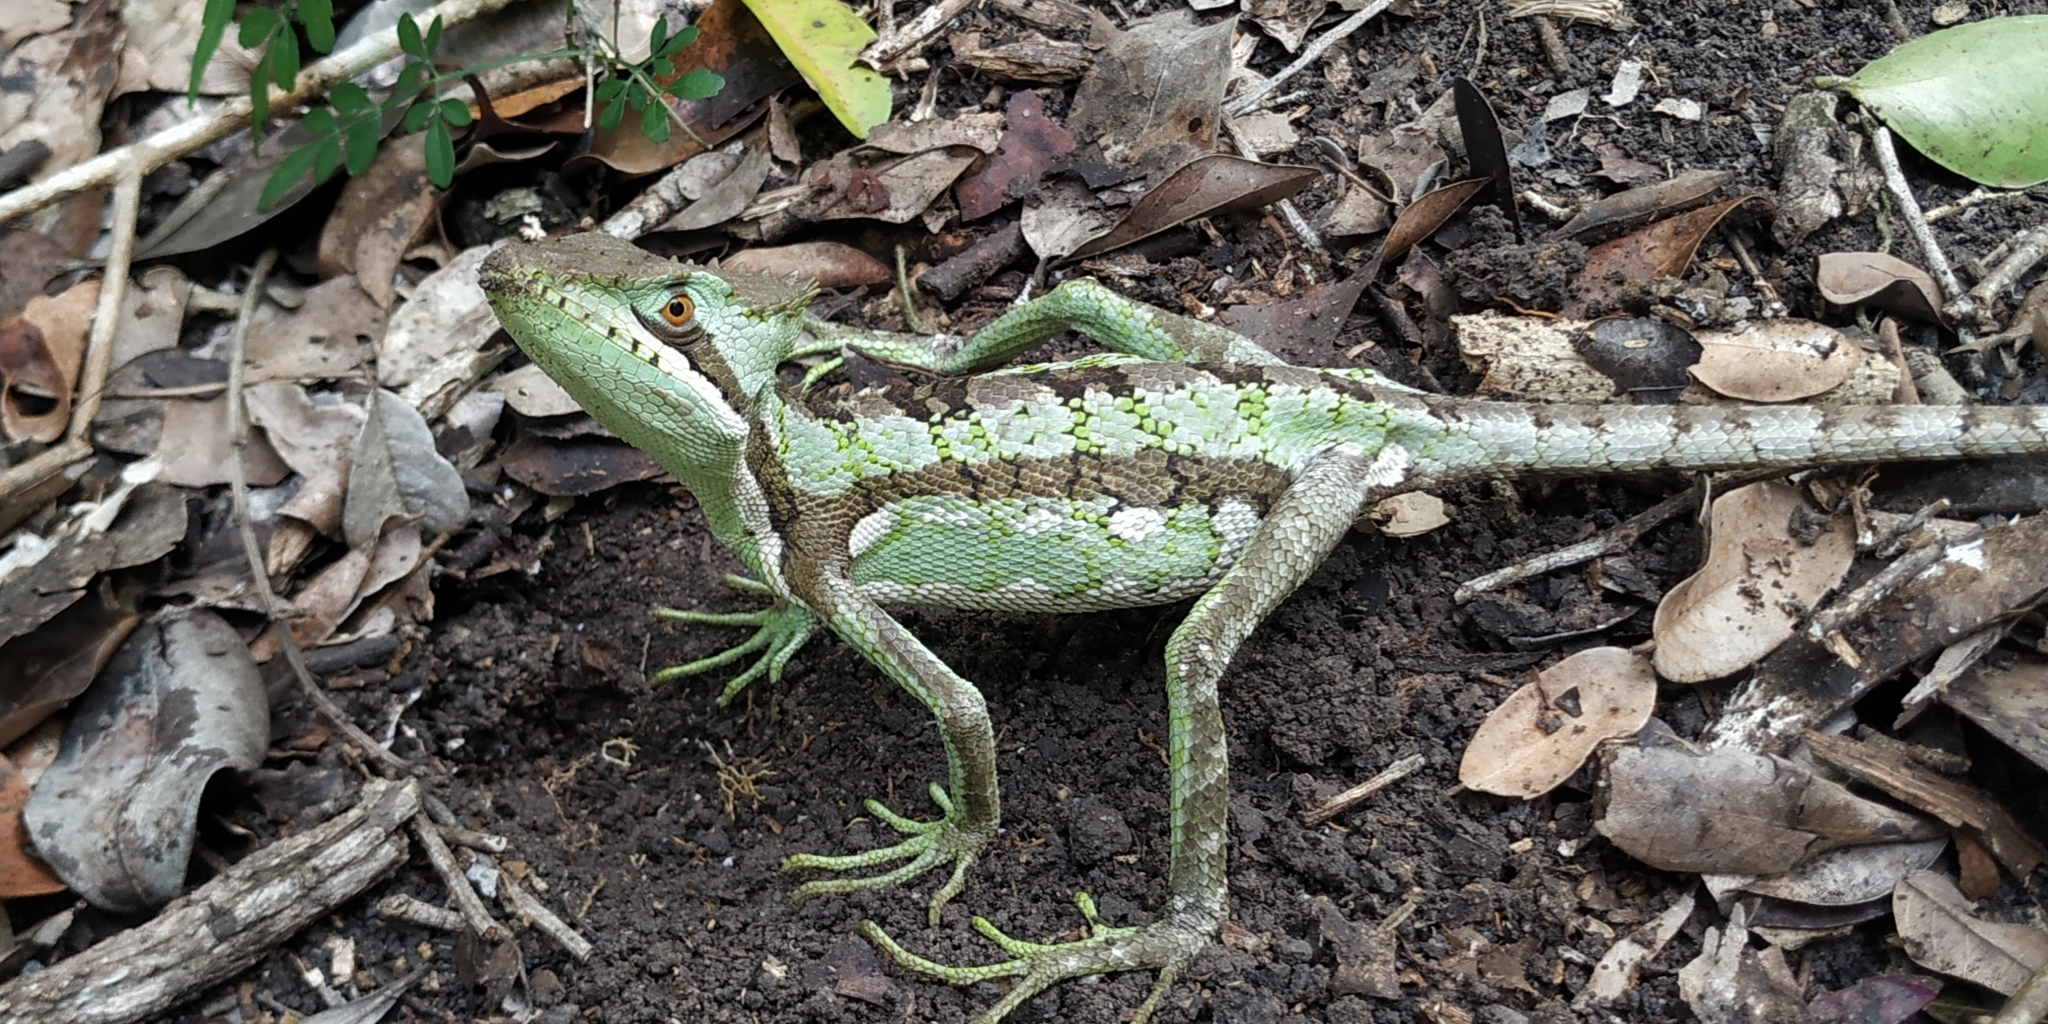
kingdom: Animalia
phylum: Chordata
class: Squamata
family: Corytophanidae
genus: Laemanctus
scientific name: Laemanctus serratus
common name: Serrated casquehead iguana
